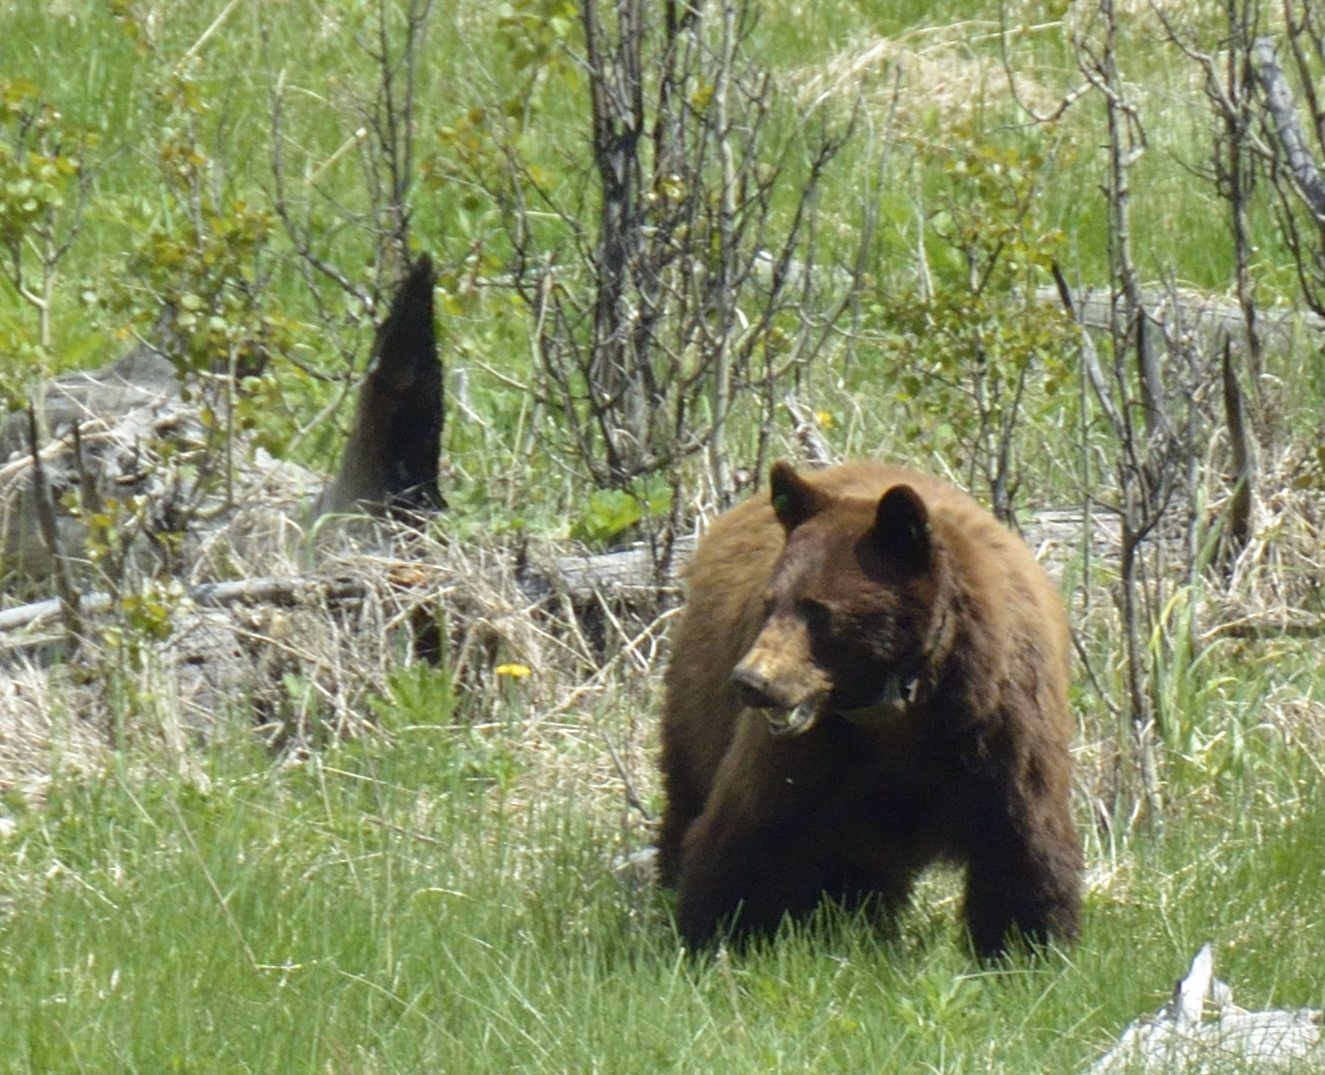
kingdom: Animalia
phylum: Chordata
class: Mammalia
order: Carnivora
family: Ursidae
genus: Ursus
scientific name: Ursus americanus
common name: American black bear
